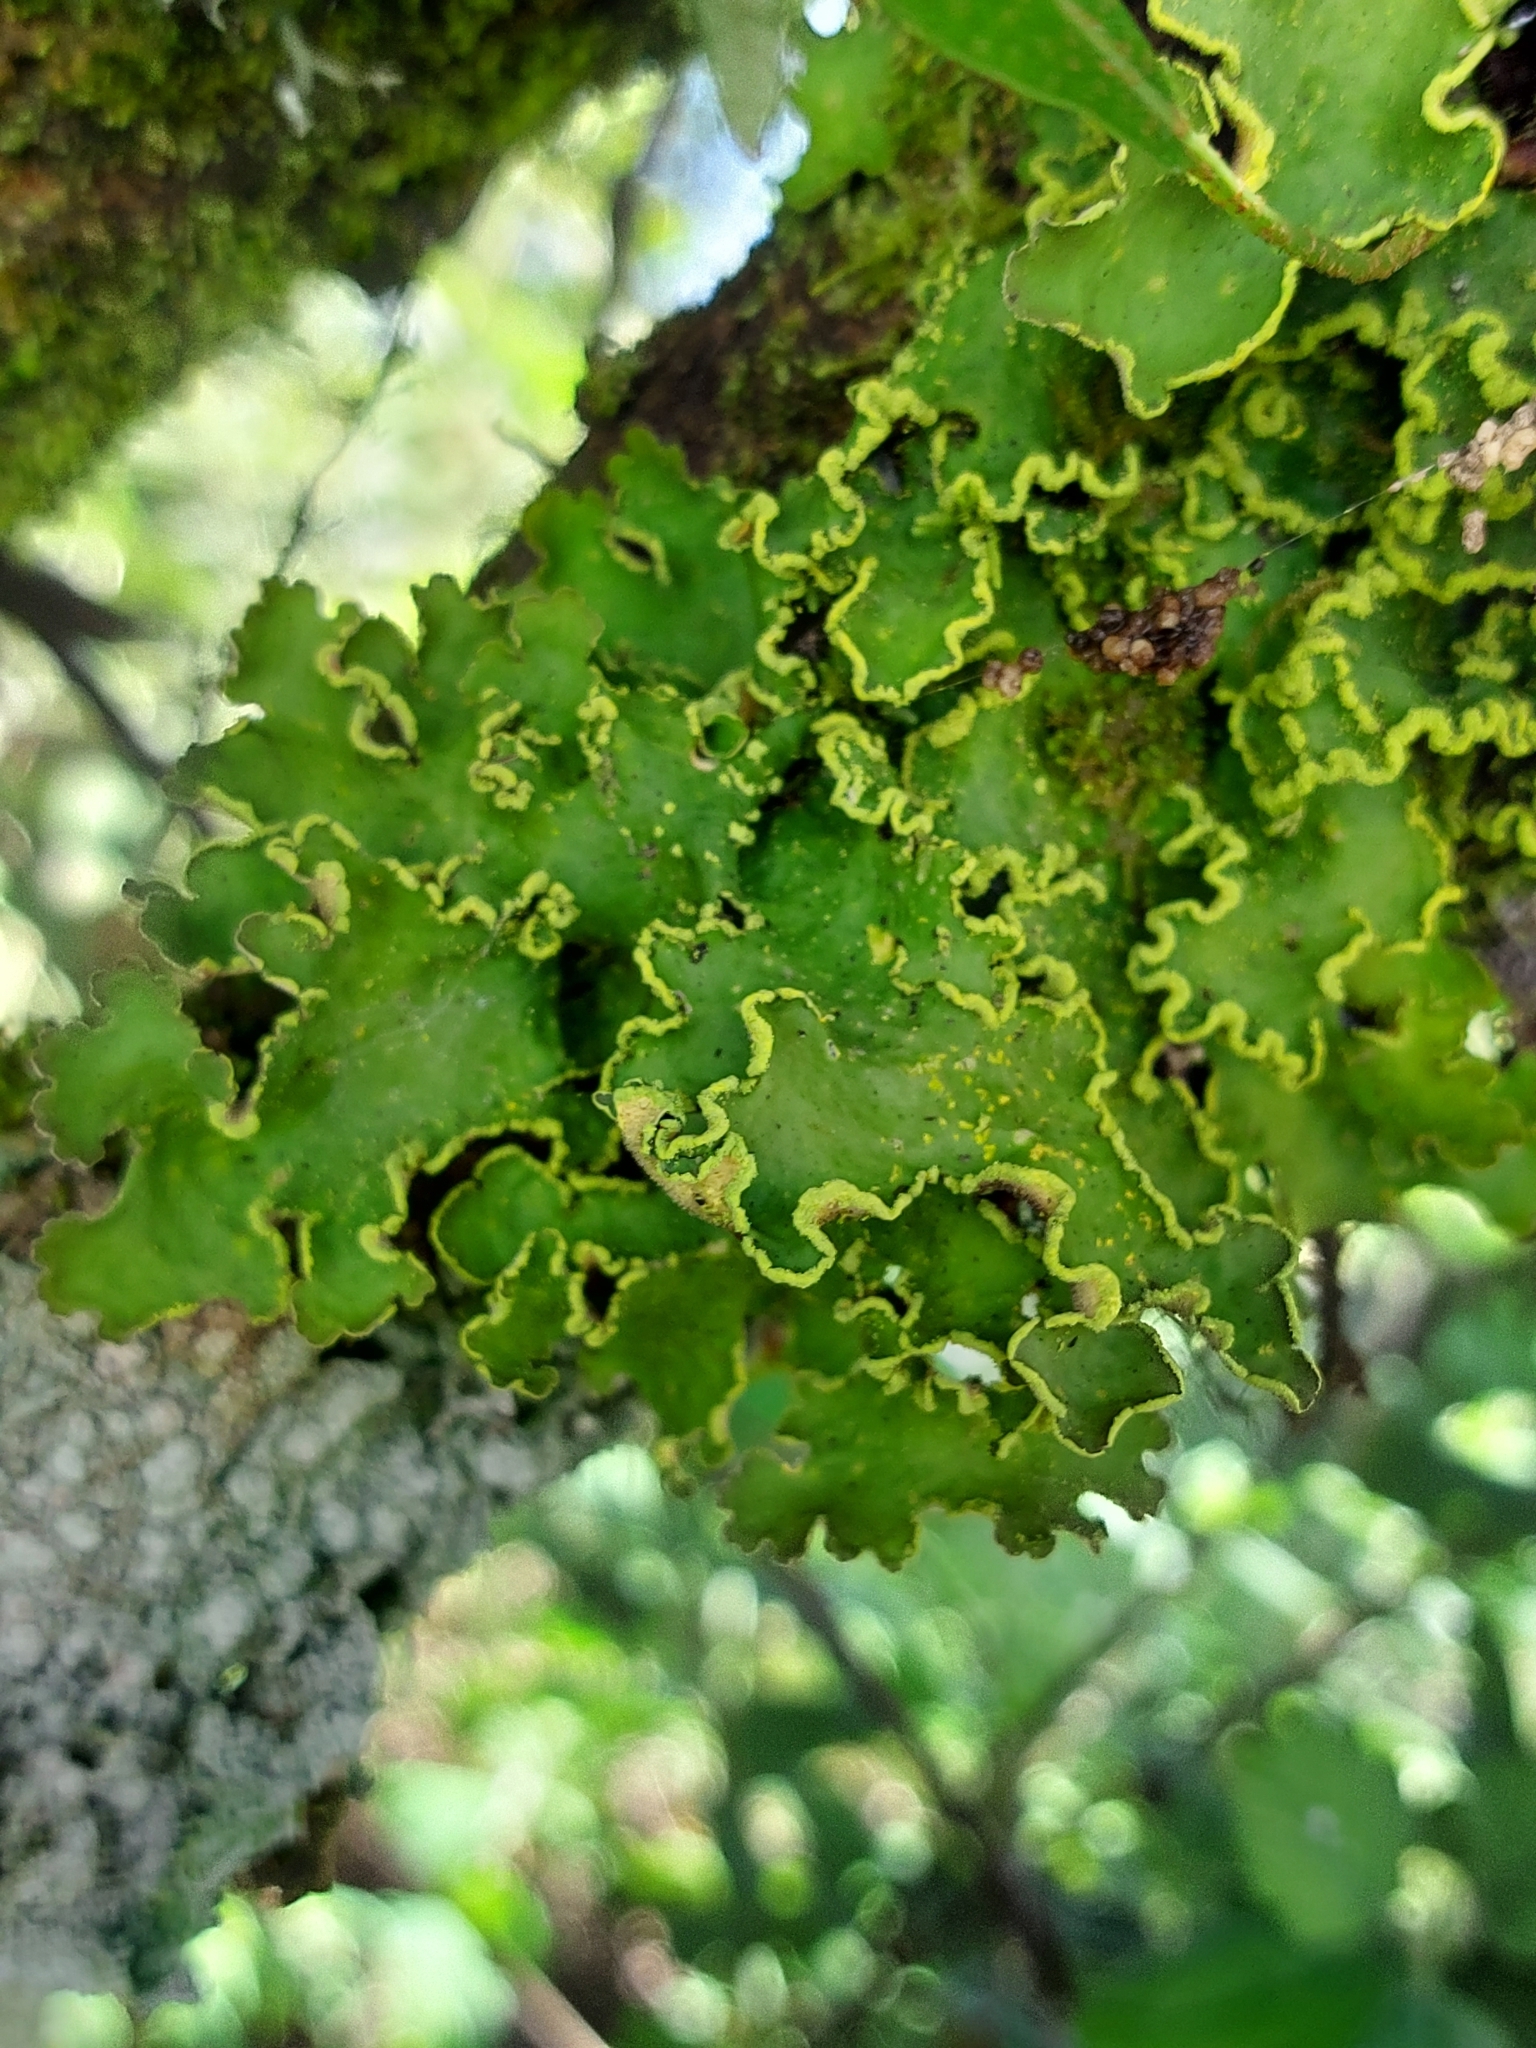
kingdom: Fungi
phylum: Ascomycota
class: Lecanoromycetes
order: Peltigerales
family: Lobariaceae
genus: Pseudocyphellaria
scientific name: Pseudocyphellaria aurata
